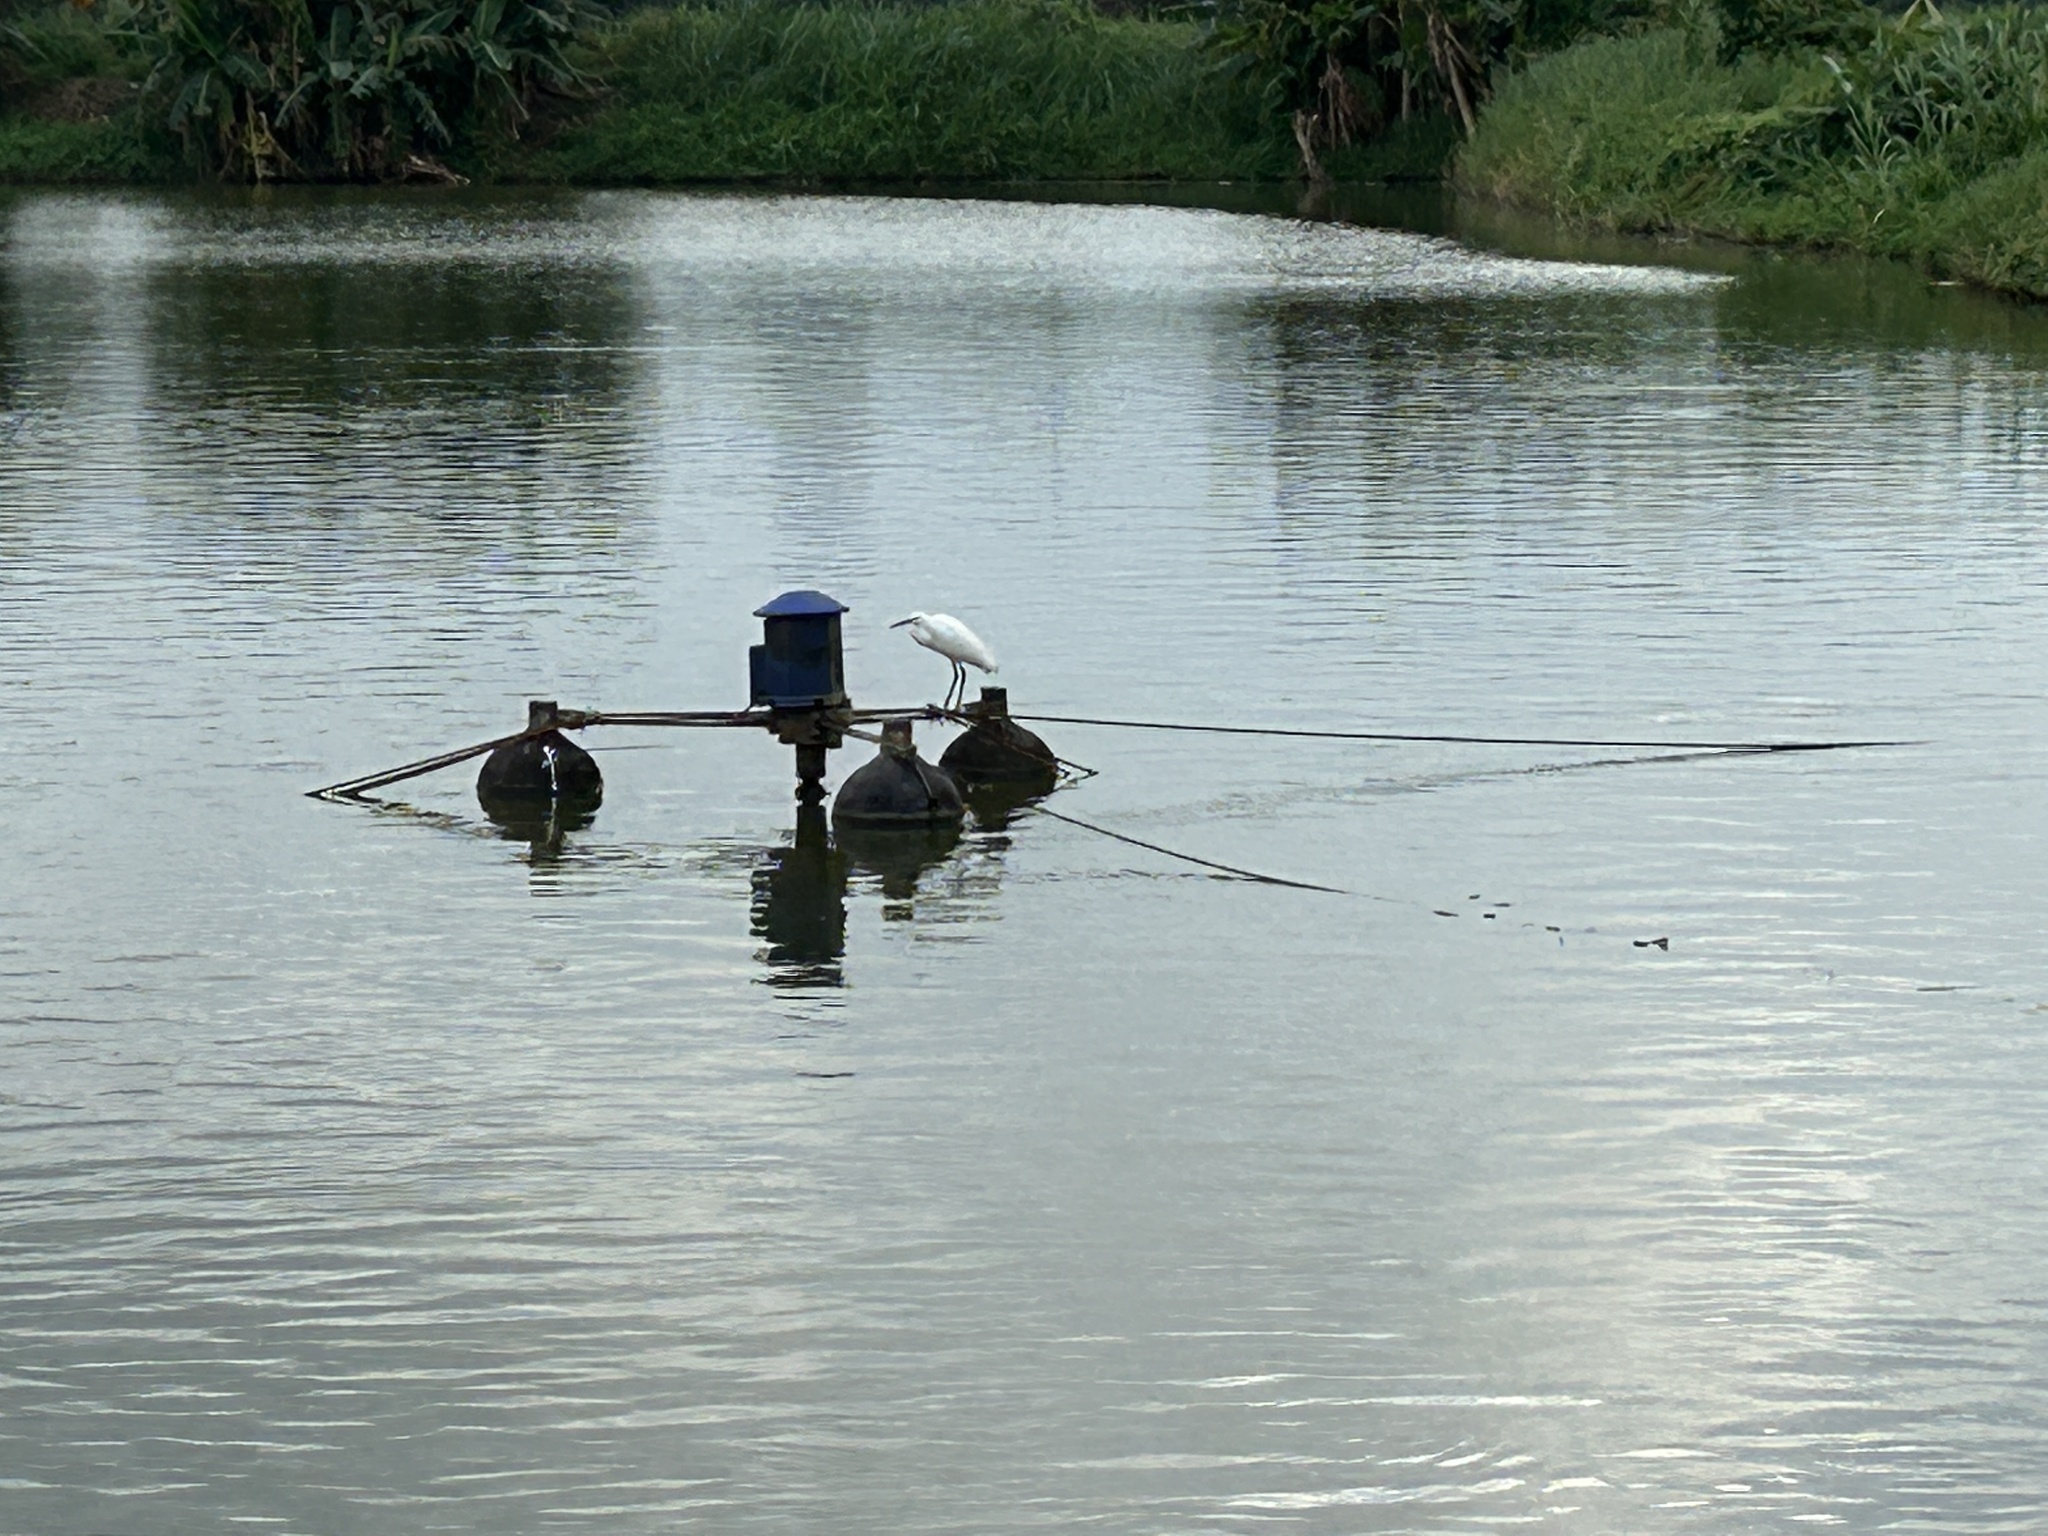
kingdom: Animalia
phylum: Chordata
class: Aves
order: Pelecaniformes
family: Ardeidae
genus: Egretta
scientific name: Egretta garzetta
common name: Little egret
